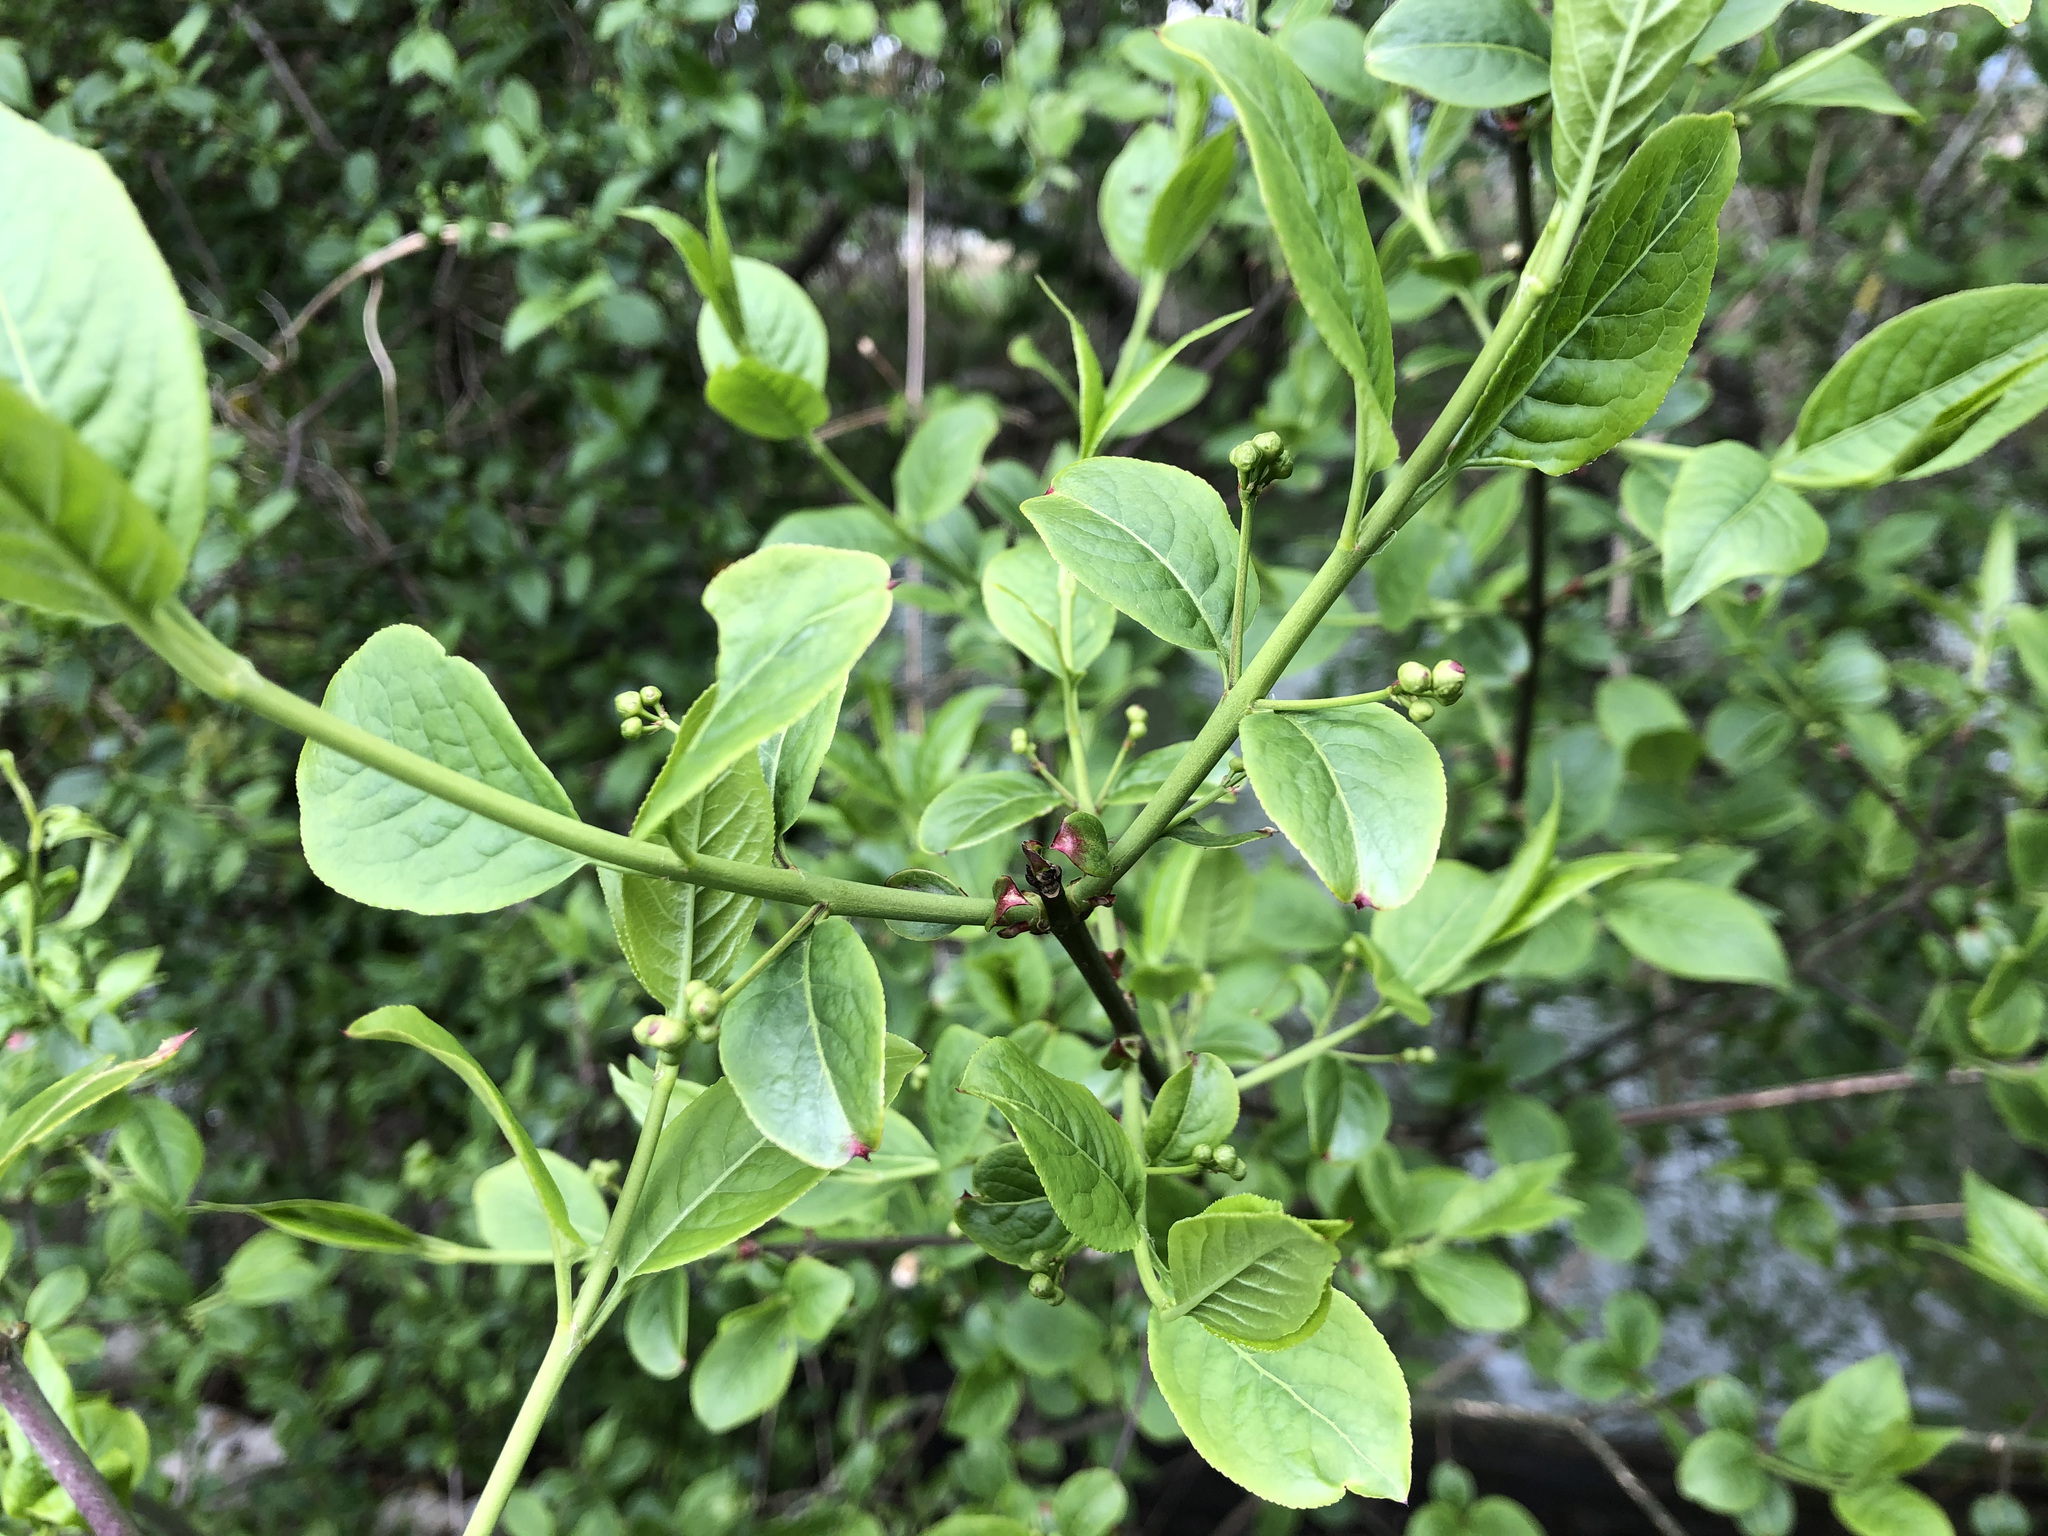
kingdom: Plantae
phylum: Tracheophyta
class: Magnoliopsida
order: Celastrales
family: Celastraceae
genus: Euonymus
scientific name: Euonymus europaeus
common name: Spindle
